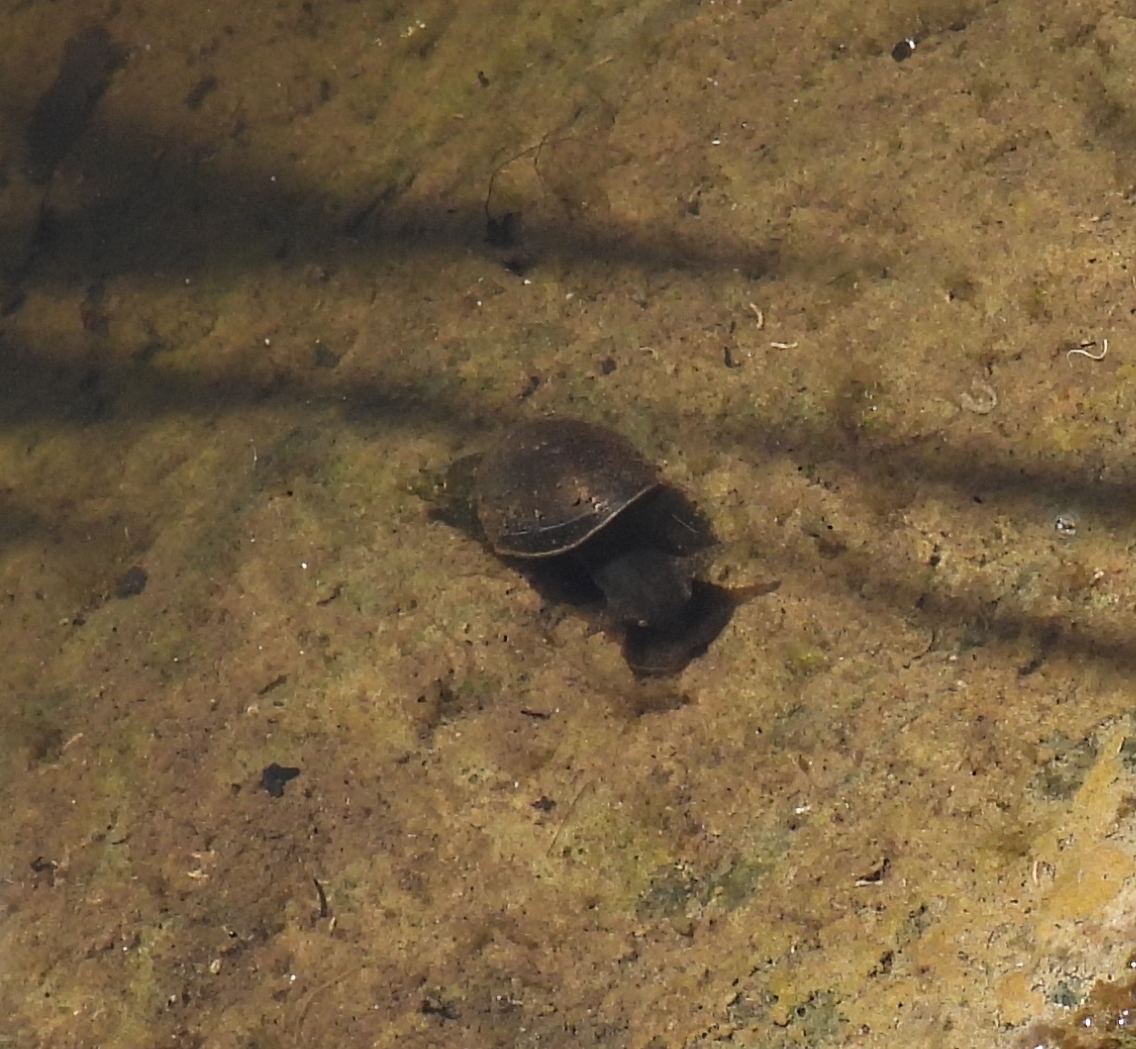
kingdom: Animalia
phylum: Mollusca
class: Gastropoda
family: Lymnaeidae
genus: Lymnaea
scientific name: Lymnaea stagnalis
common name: Great pond snail
